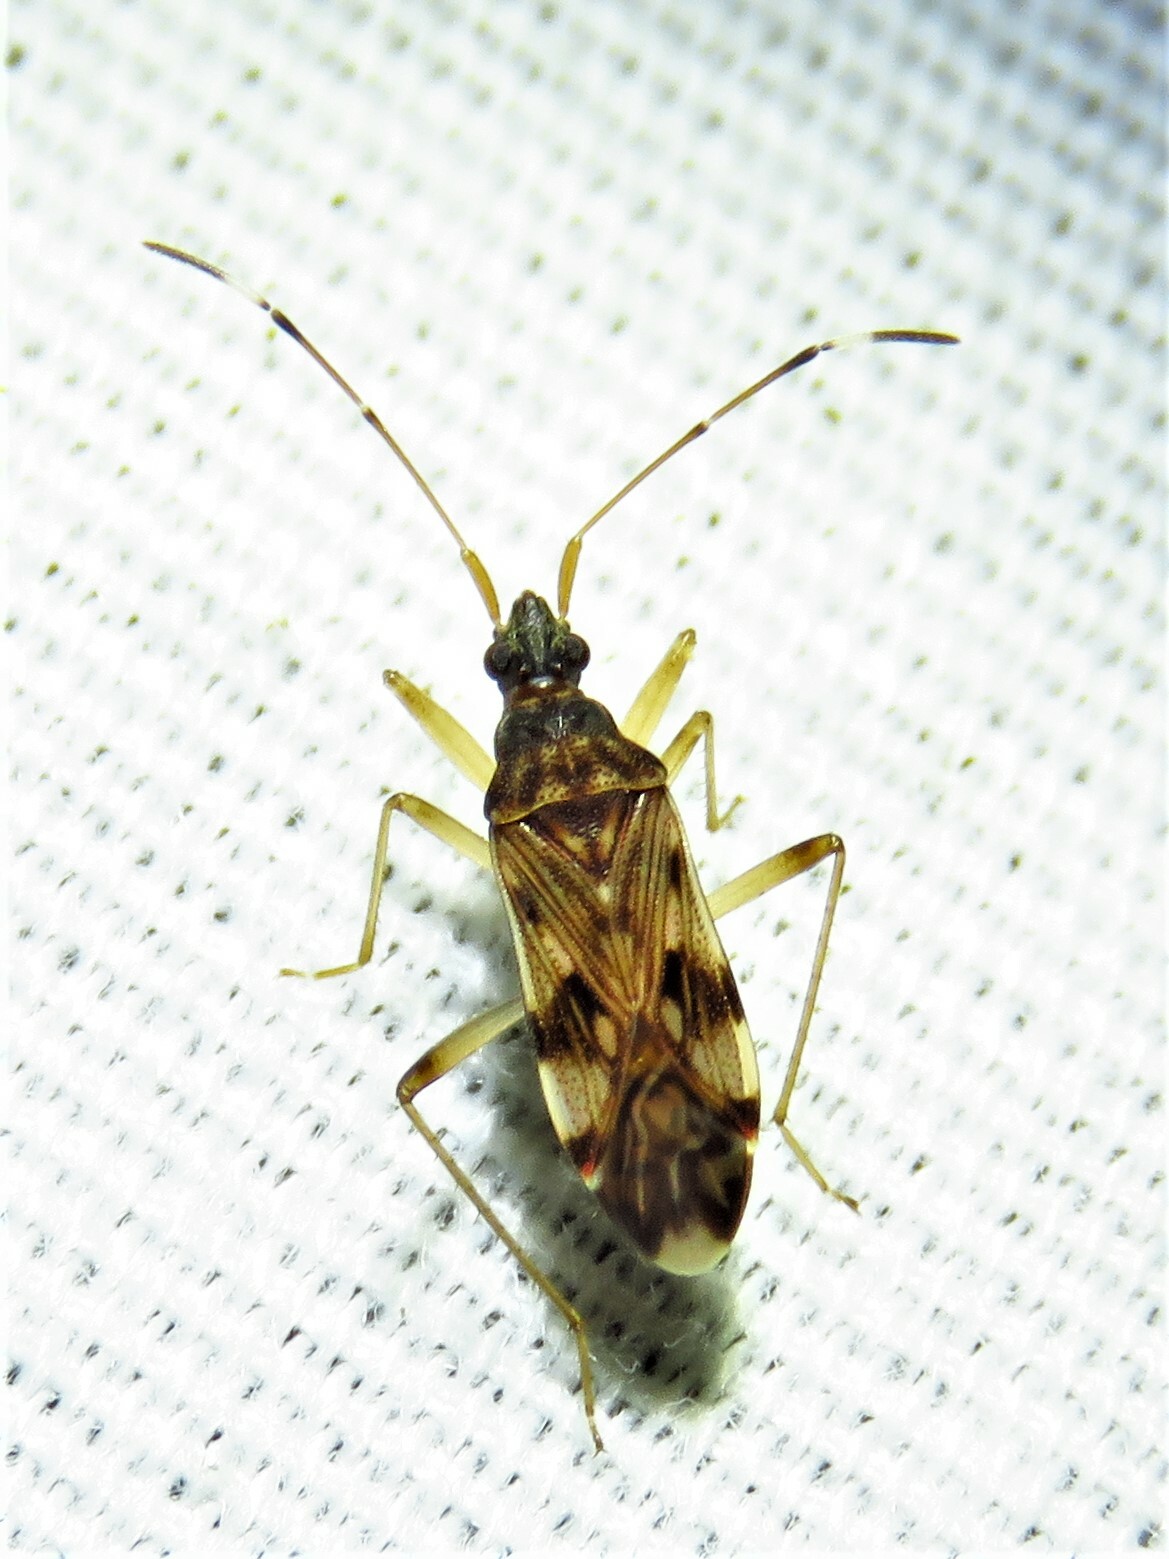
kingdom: Animalia
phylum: Arthropoda
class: Insecta
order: Hemiptera
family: Rhyparochromidae
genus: Ozophora
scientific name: Ozophora picturata
